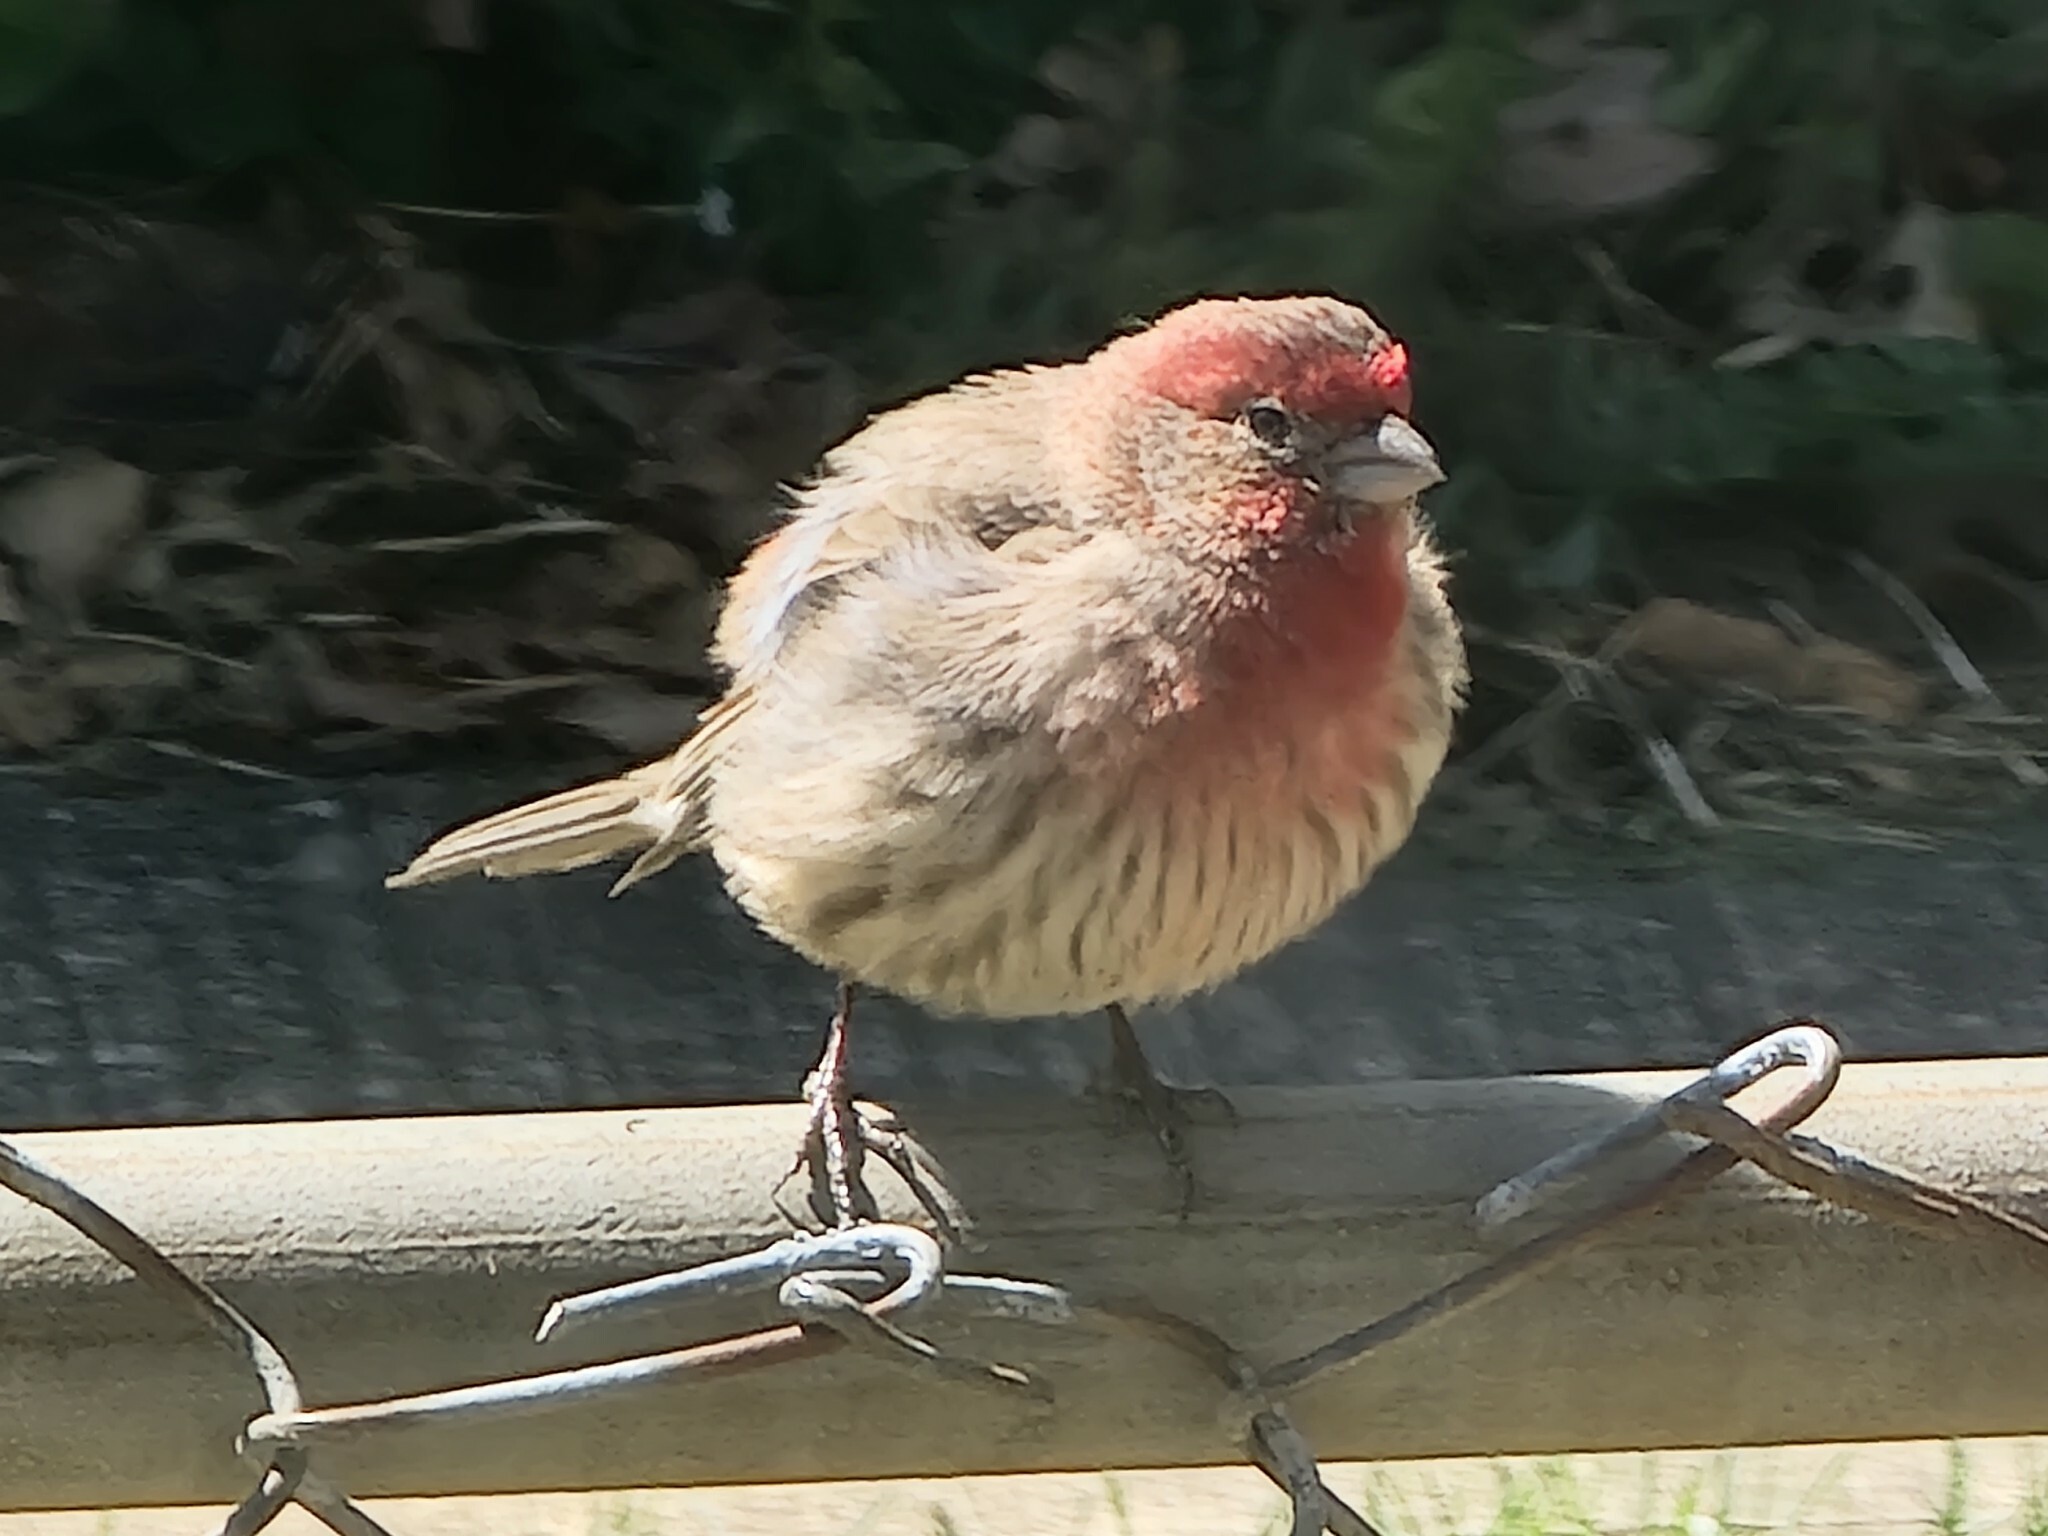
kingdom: Animalia
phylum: Chordata
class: Aves
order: Passeriformes
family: Fringillidae
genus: Haemorhous
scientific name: Haemorhous mexicanus
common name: House finch
